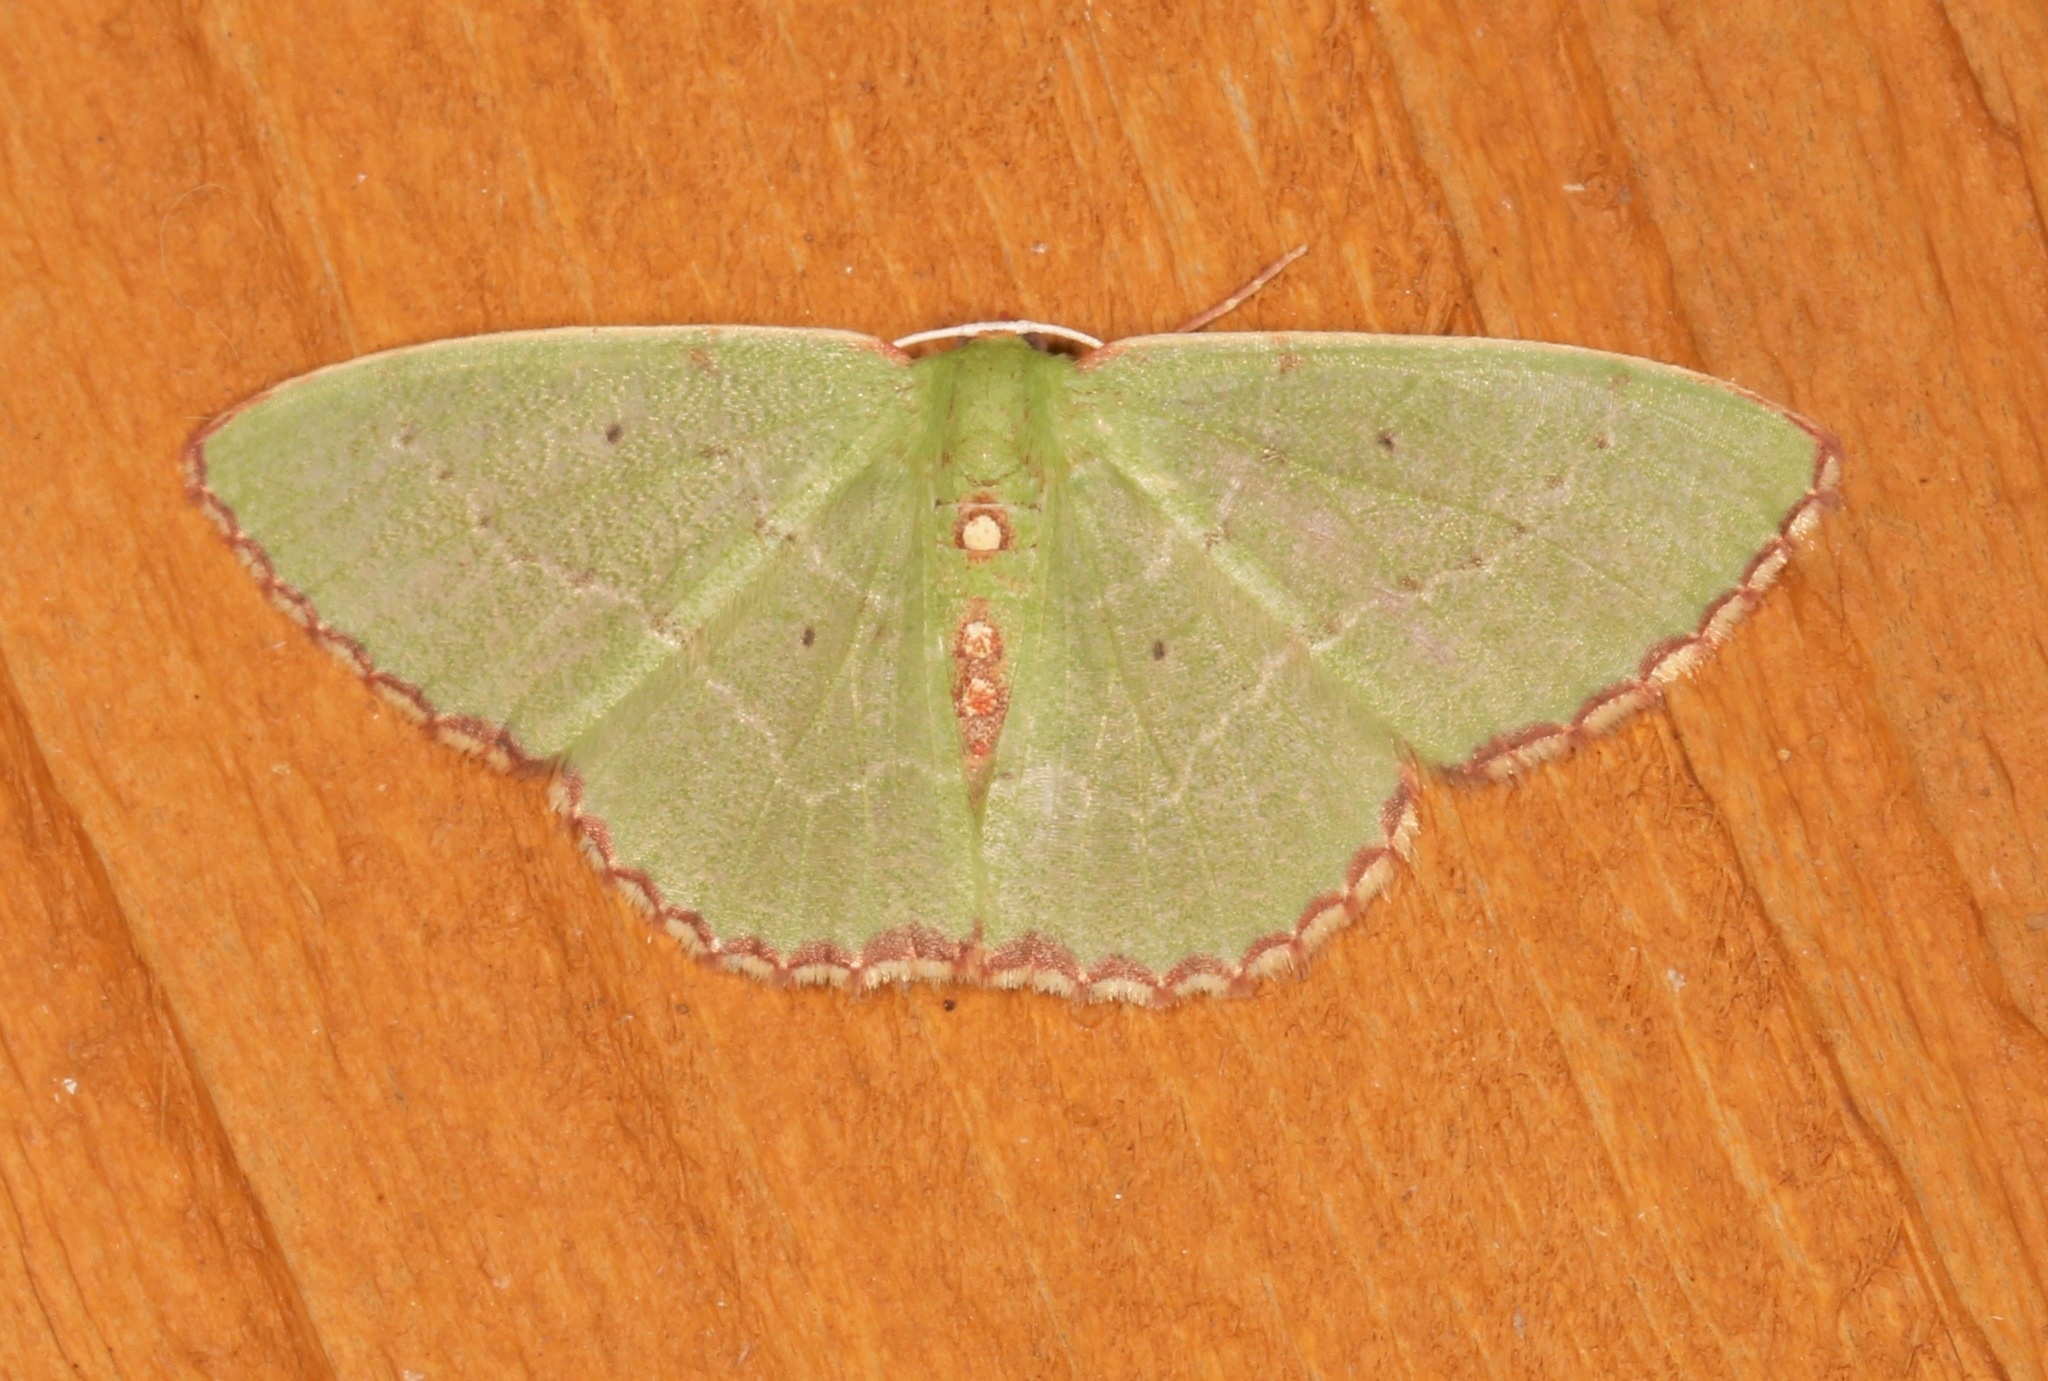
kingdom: Animalia
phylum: Arthropoda
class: Insecta
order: Lepidoptera
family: Geometridae
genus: Nemoria
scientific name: Nemoria lixaria
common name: Red-bordered emerald
